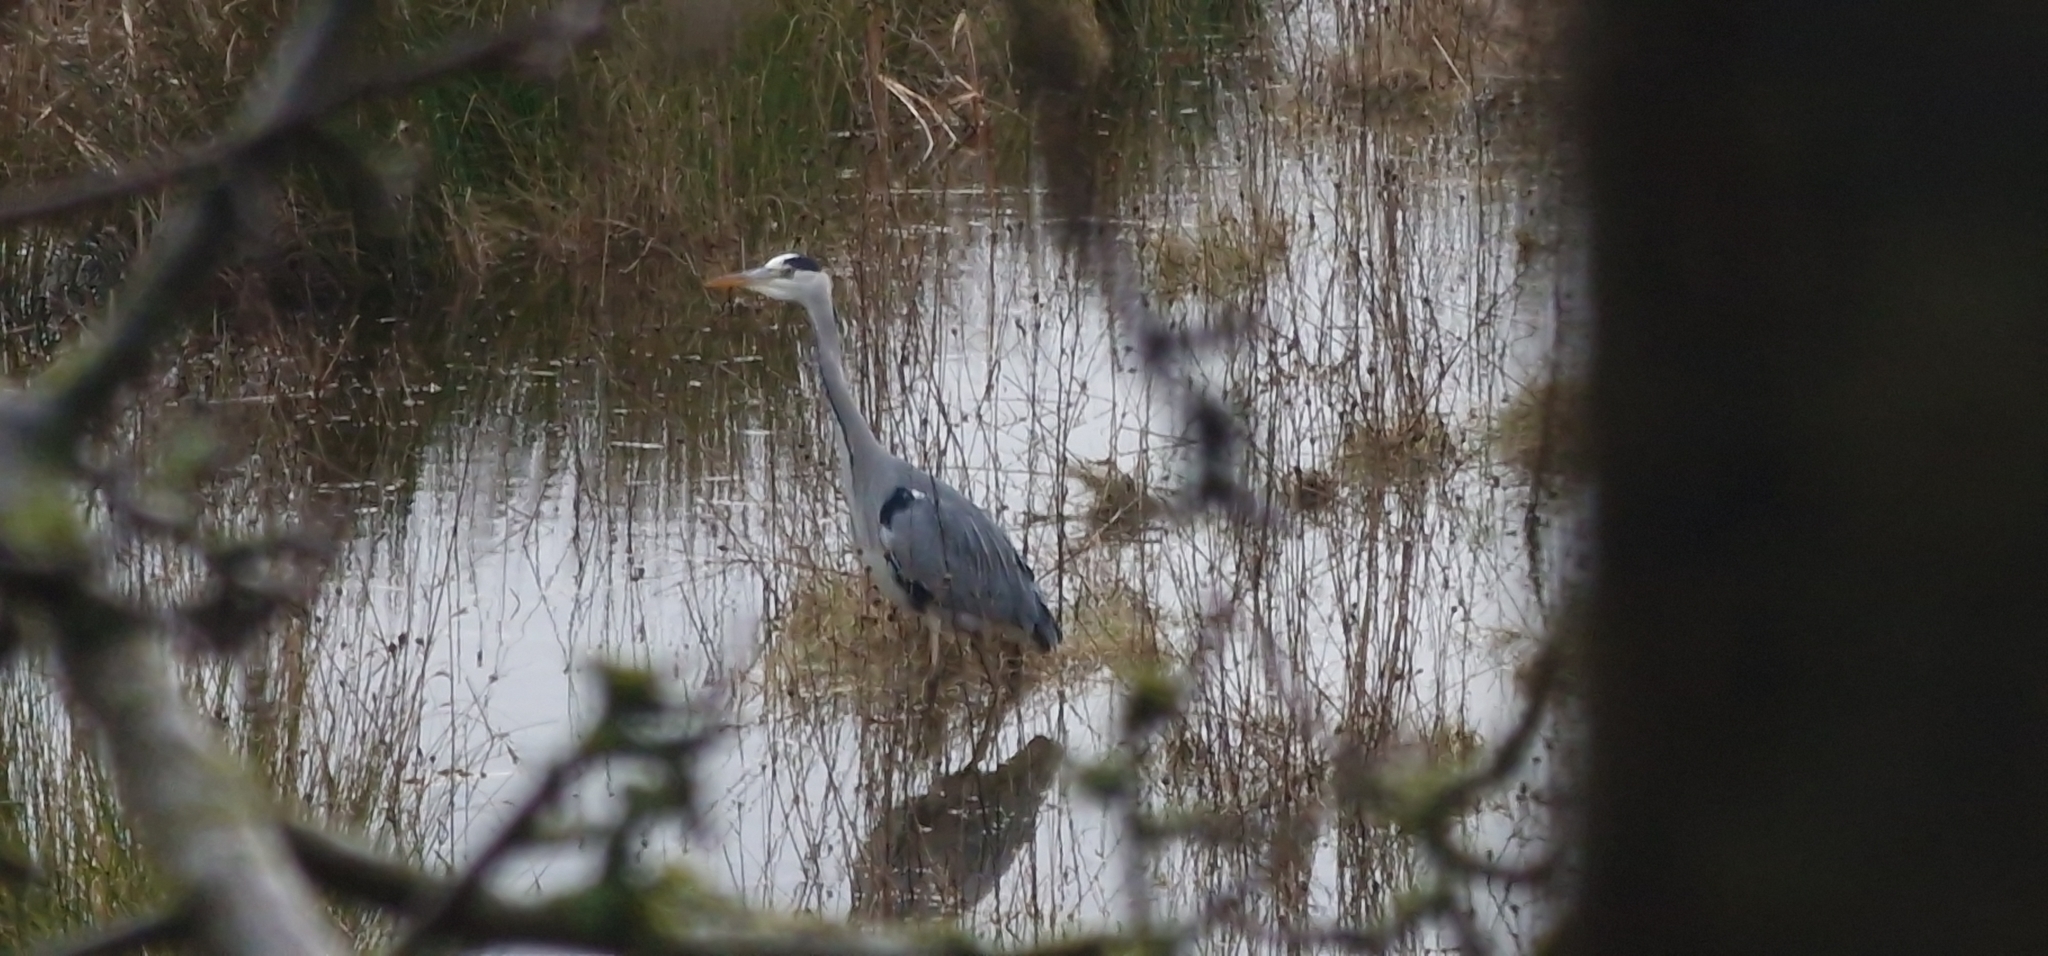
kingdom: Animalia
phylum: Chordata
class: Aves
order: Pelecaniformes
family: Ardeidae
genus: Ardea
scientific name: Ardea cinerea
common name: Grey heron
